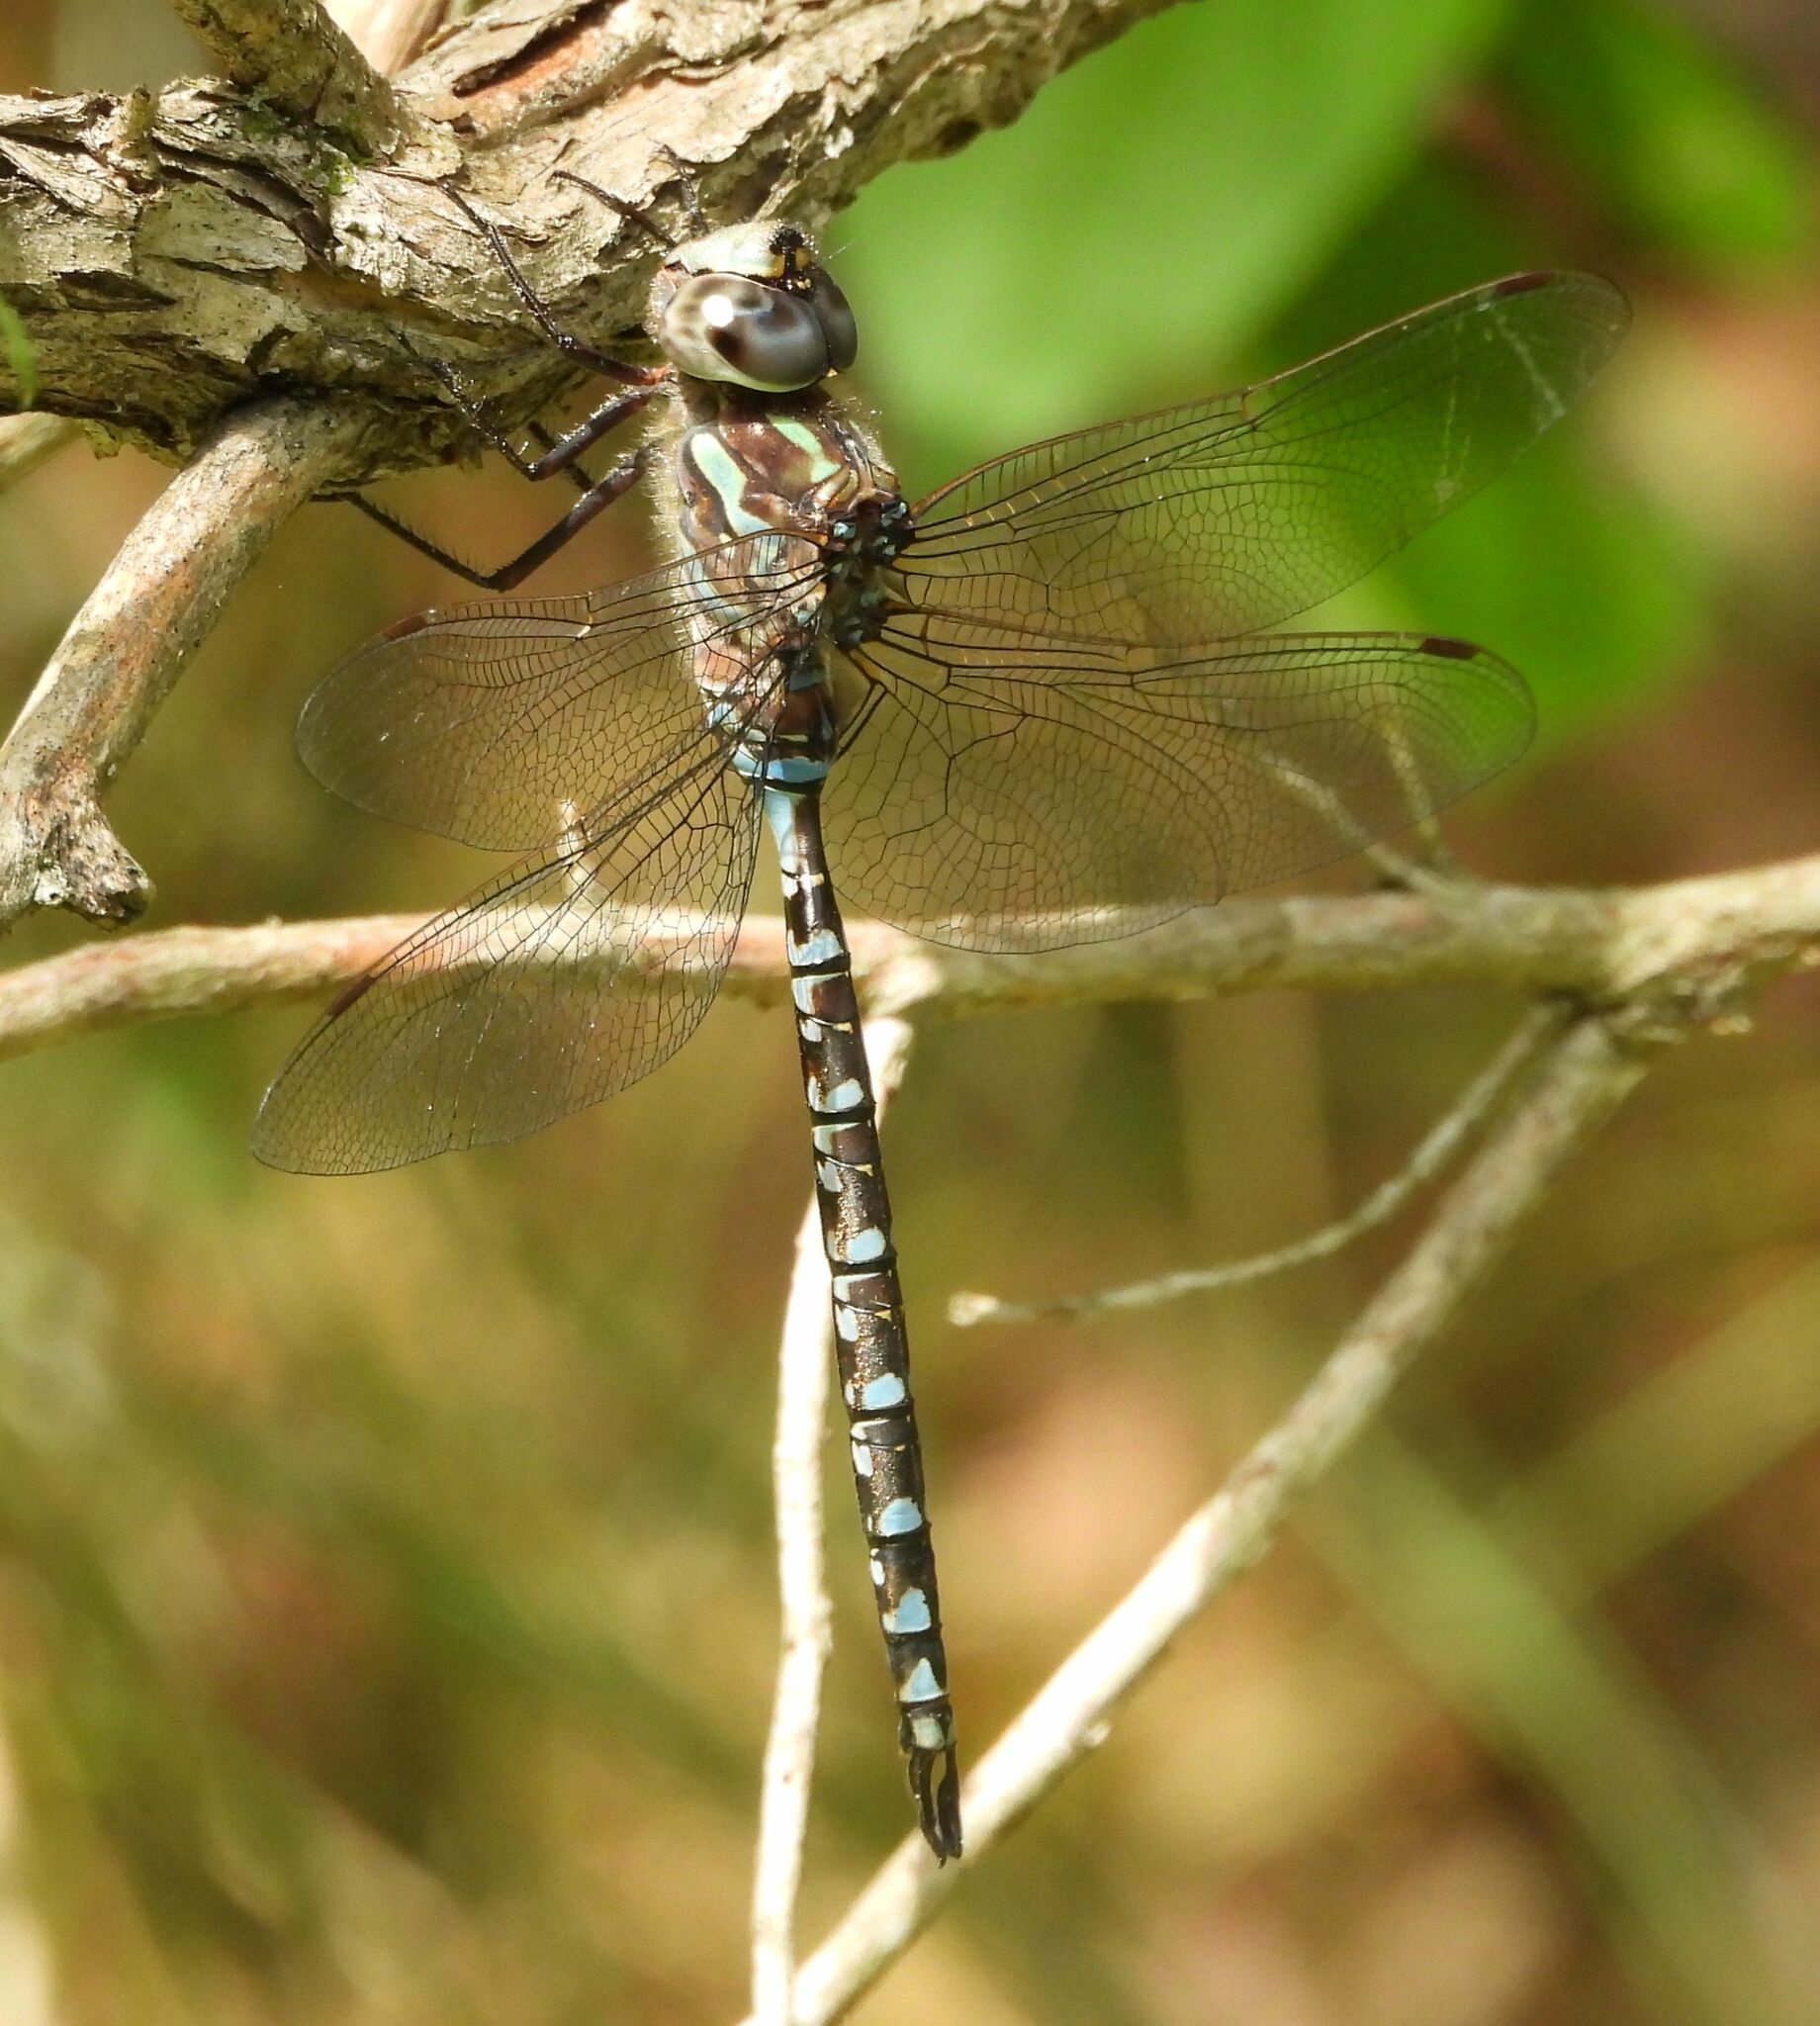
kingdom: Animalia
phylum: Arthropoda
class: Insecta
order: Odonata
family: Aeshnidae
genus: Aeshna
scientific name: Aeshna canadensis
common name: Canada darner
